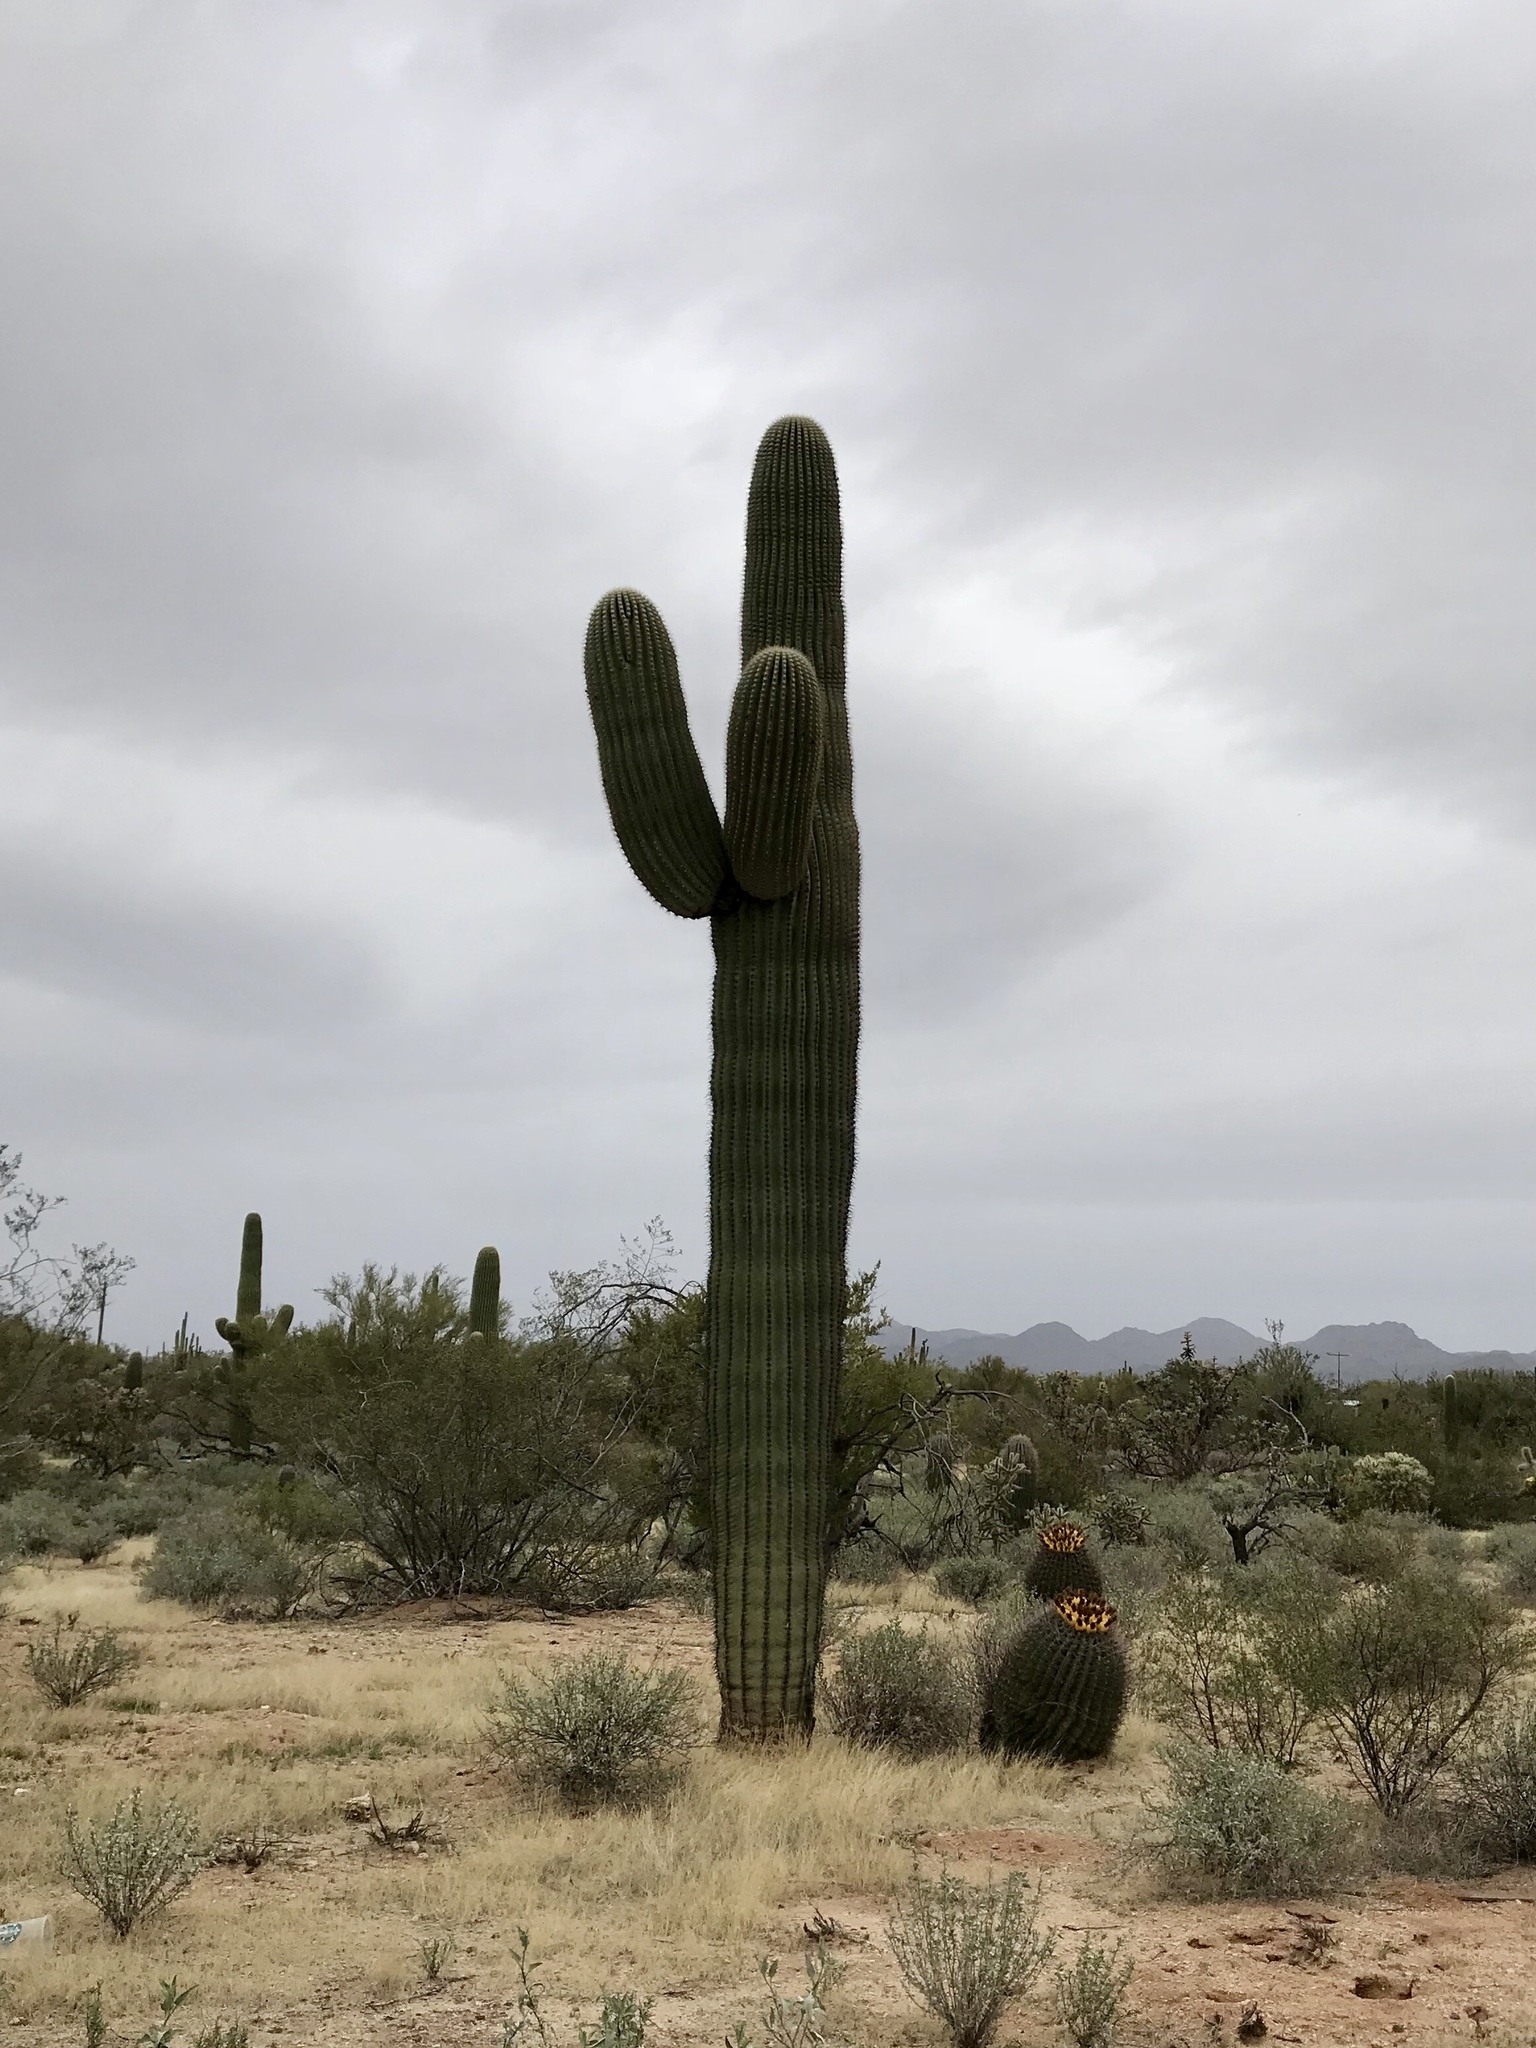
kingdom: Plantae
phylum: Tracheophyta
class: Magnoliopsida
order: Caryophyllales
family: Cactaceae
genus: Carnegiea
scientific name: Carnegiea gigantea
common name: Saguaro
